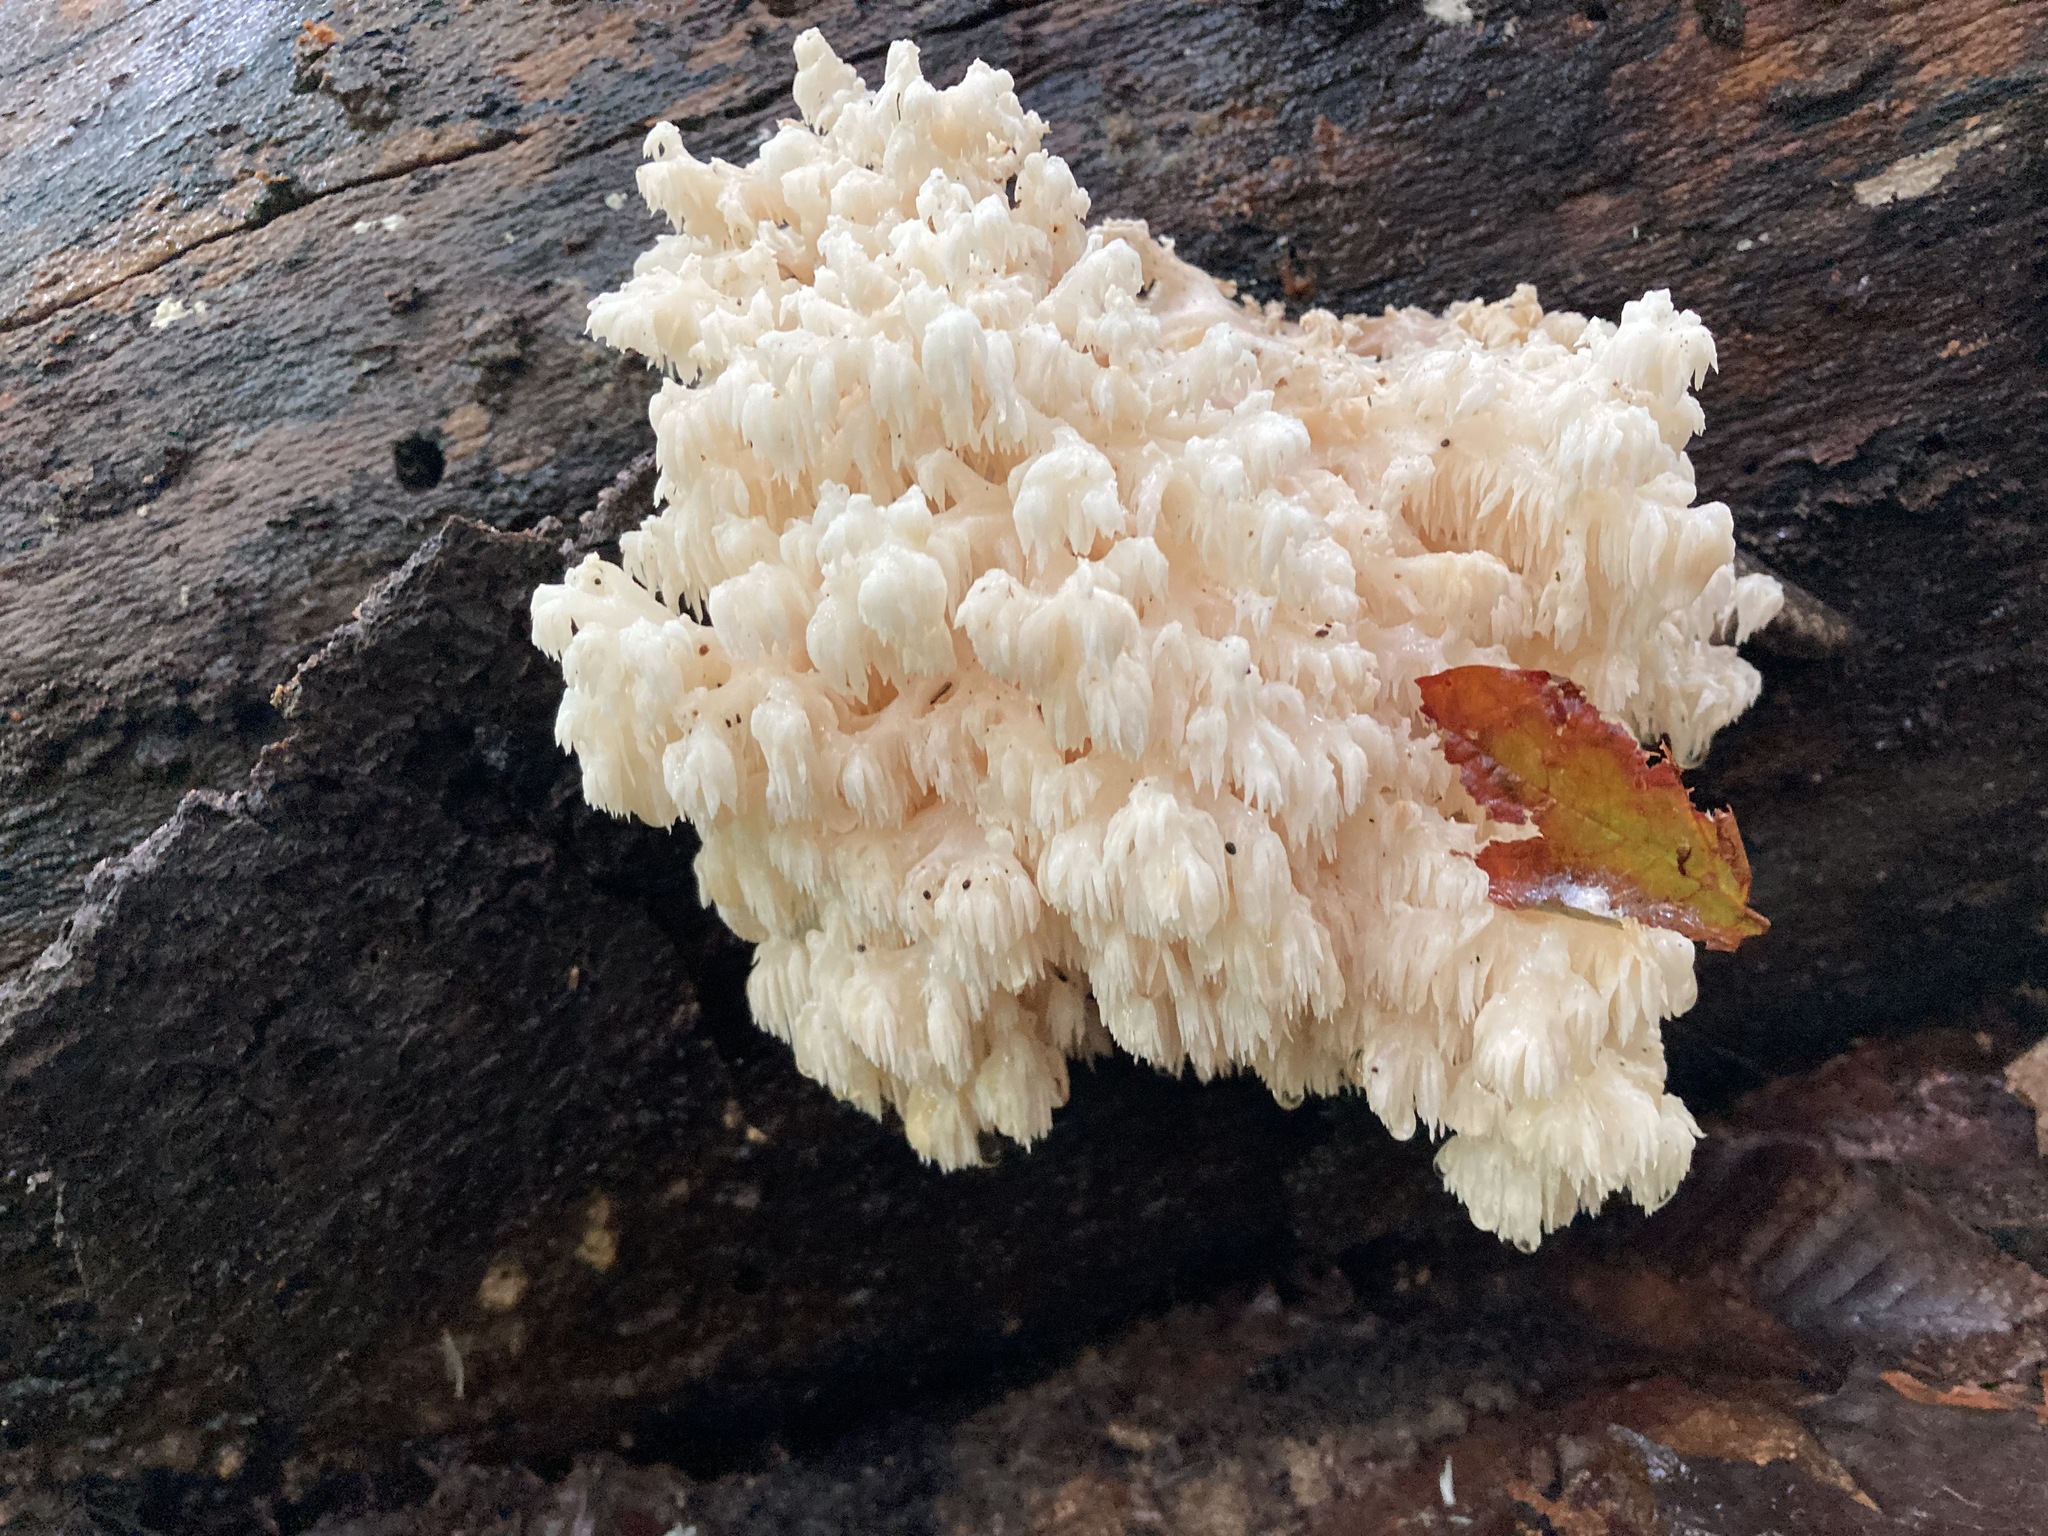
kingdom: Fungi
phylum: Basidiomycota
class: Agaricomycetes
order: Russulales
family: Hericiaceae
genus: Hericium
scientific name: Hericium coralloides
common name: Coral tooth
